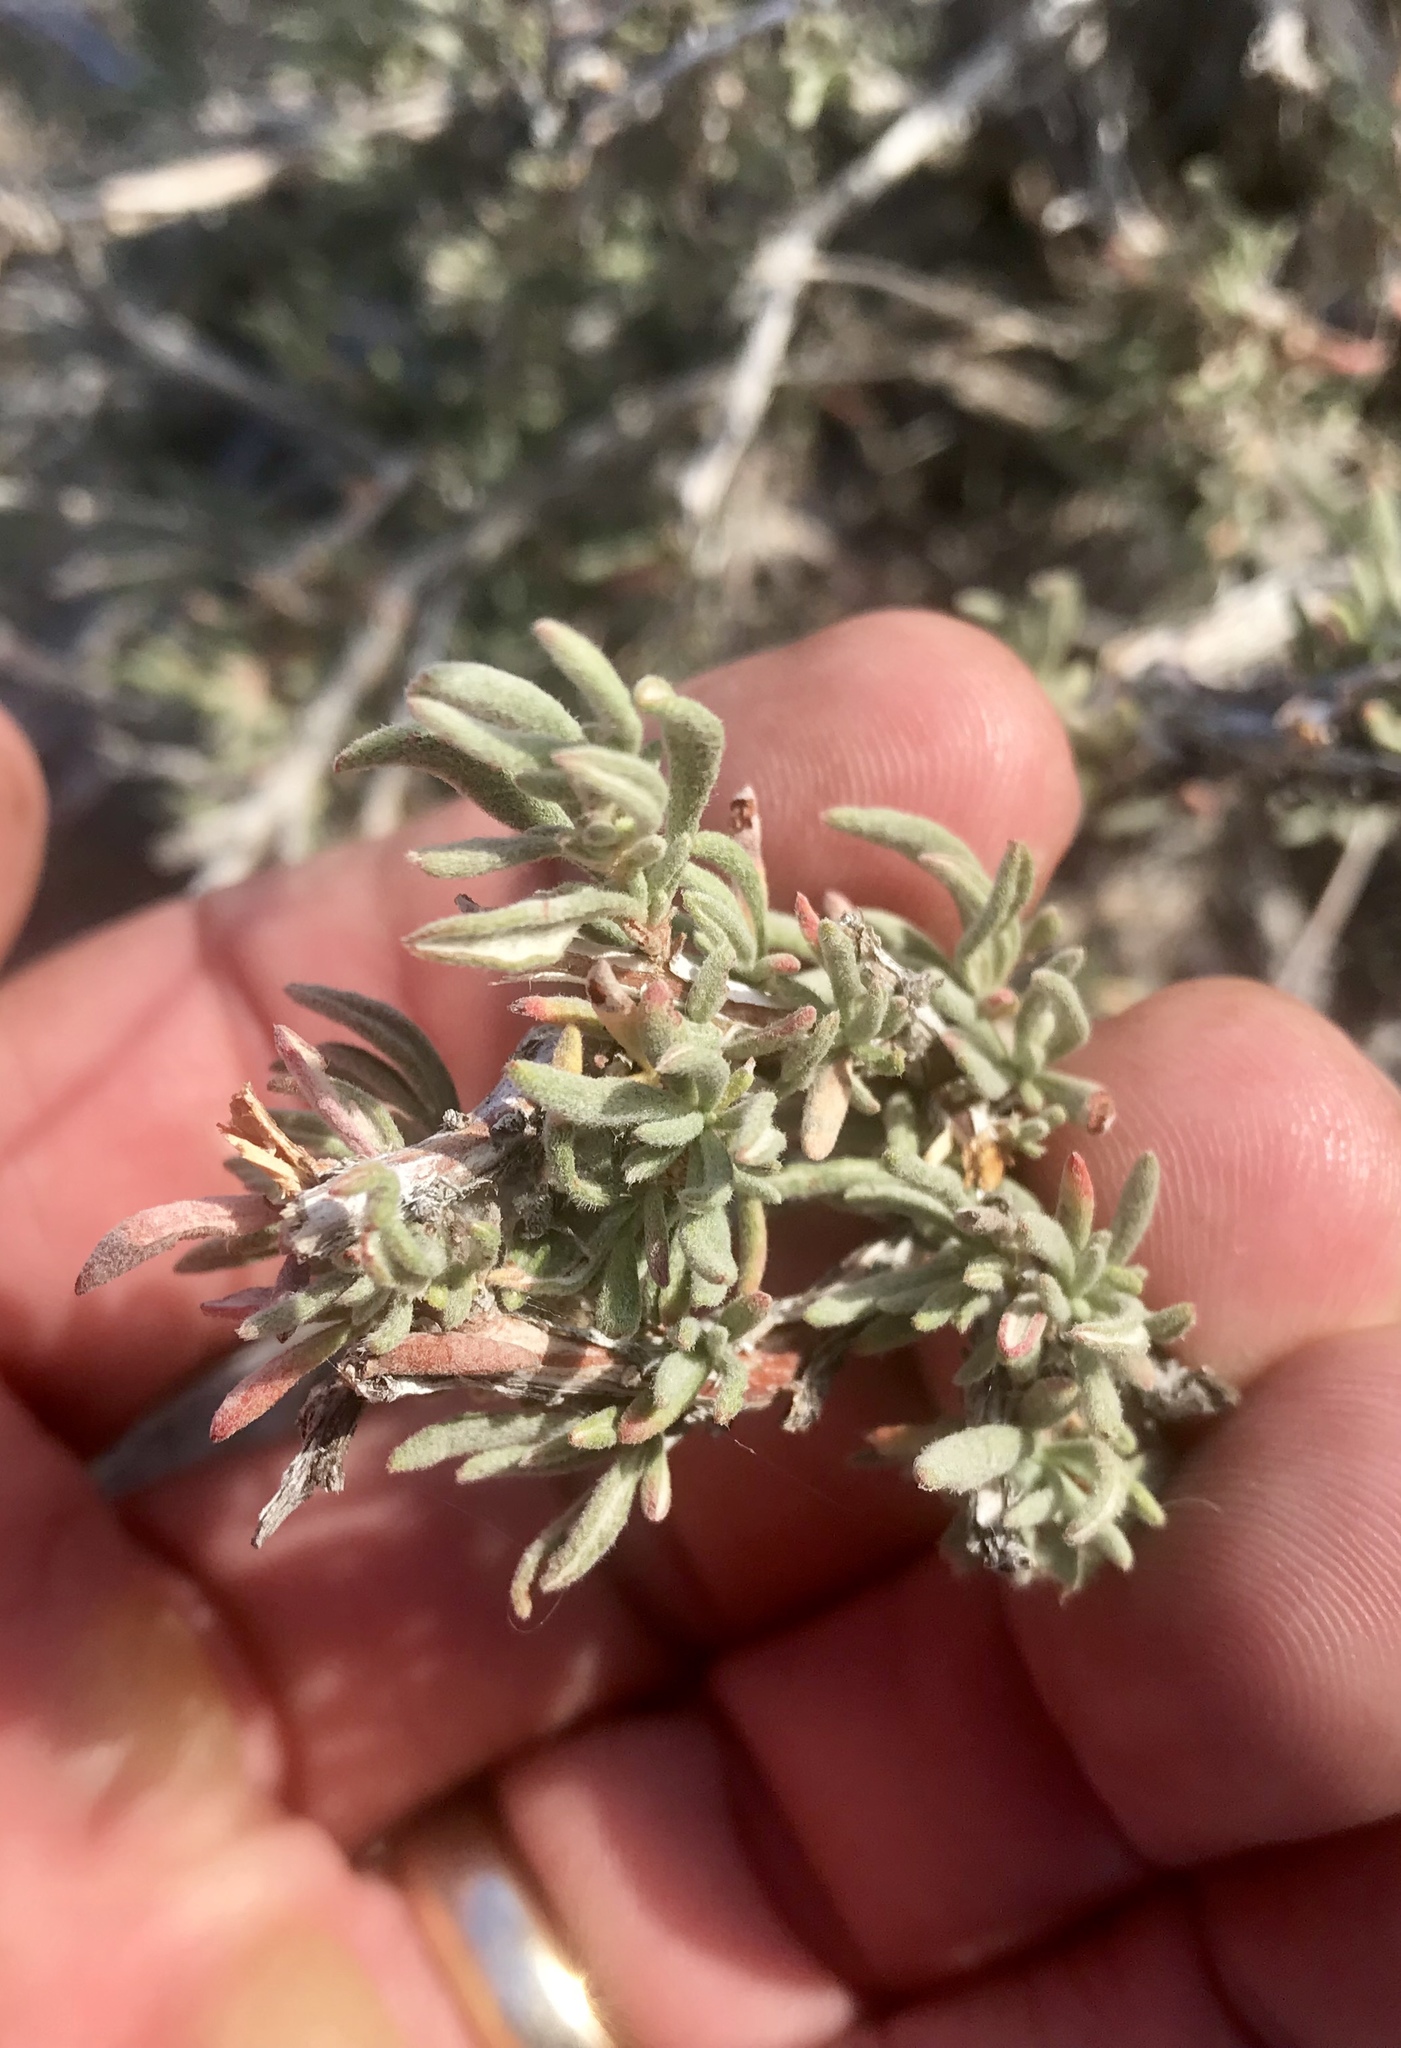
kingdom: Plantae
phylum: Tracheophyta
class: Magnoliopsida
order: Caryophyllales
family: Polygonaceae
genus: Eriogonum
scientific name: Eriogonum fasciculatum
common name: California wild buckwheat
